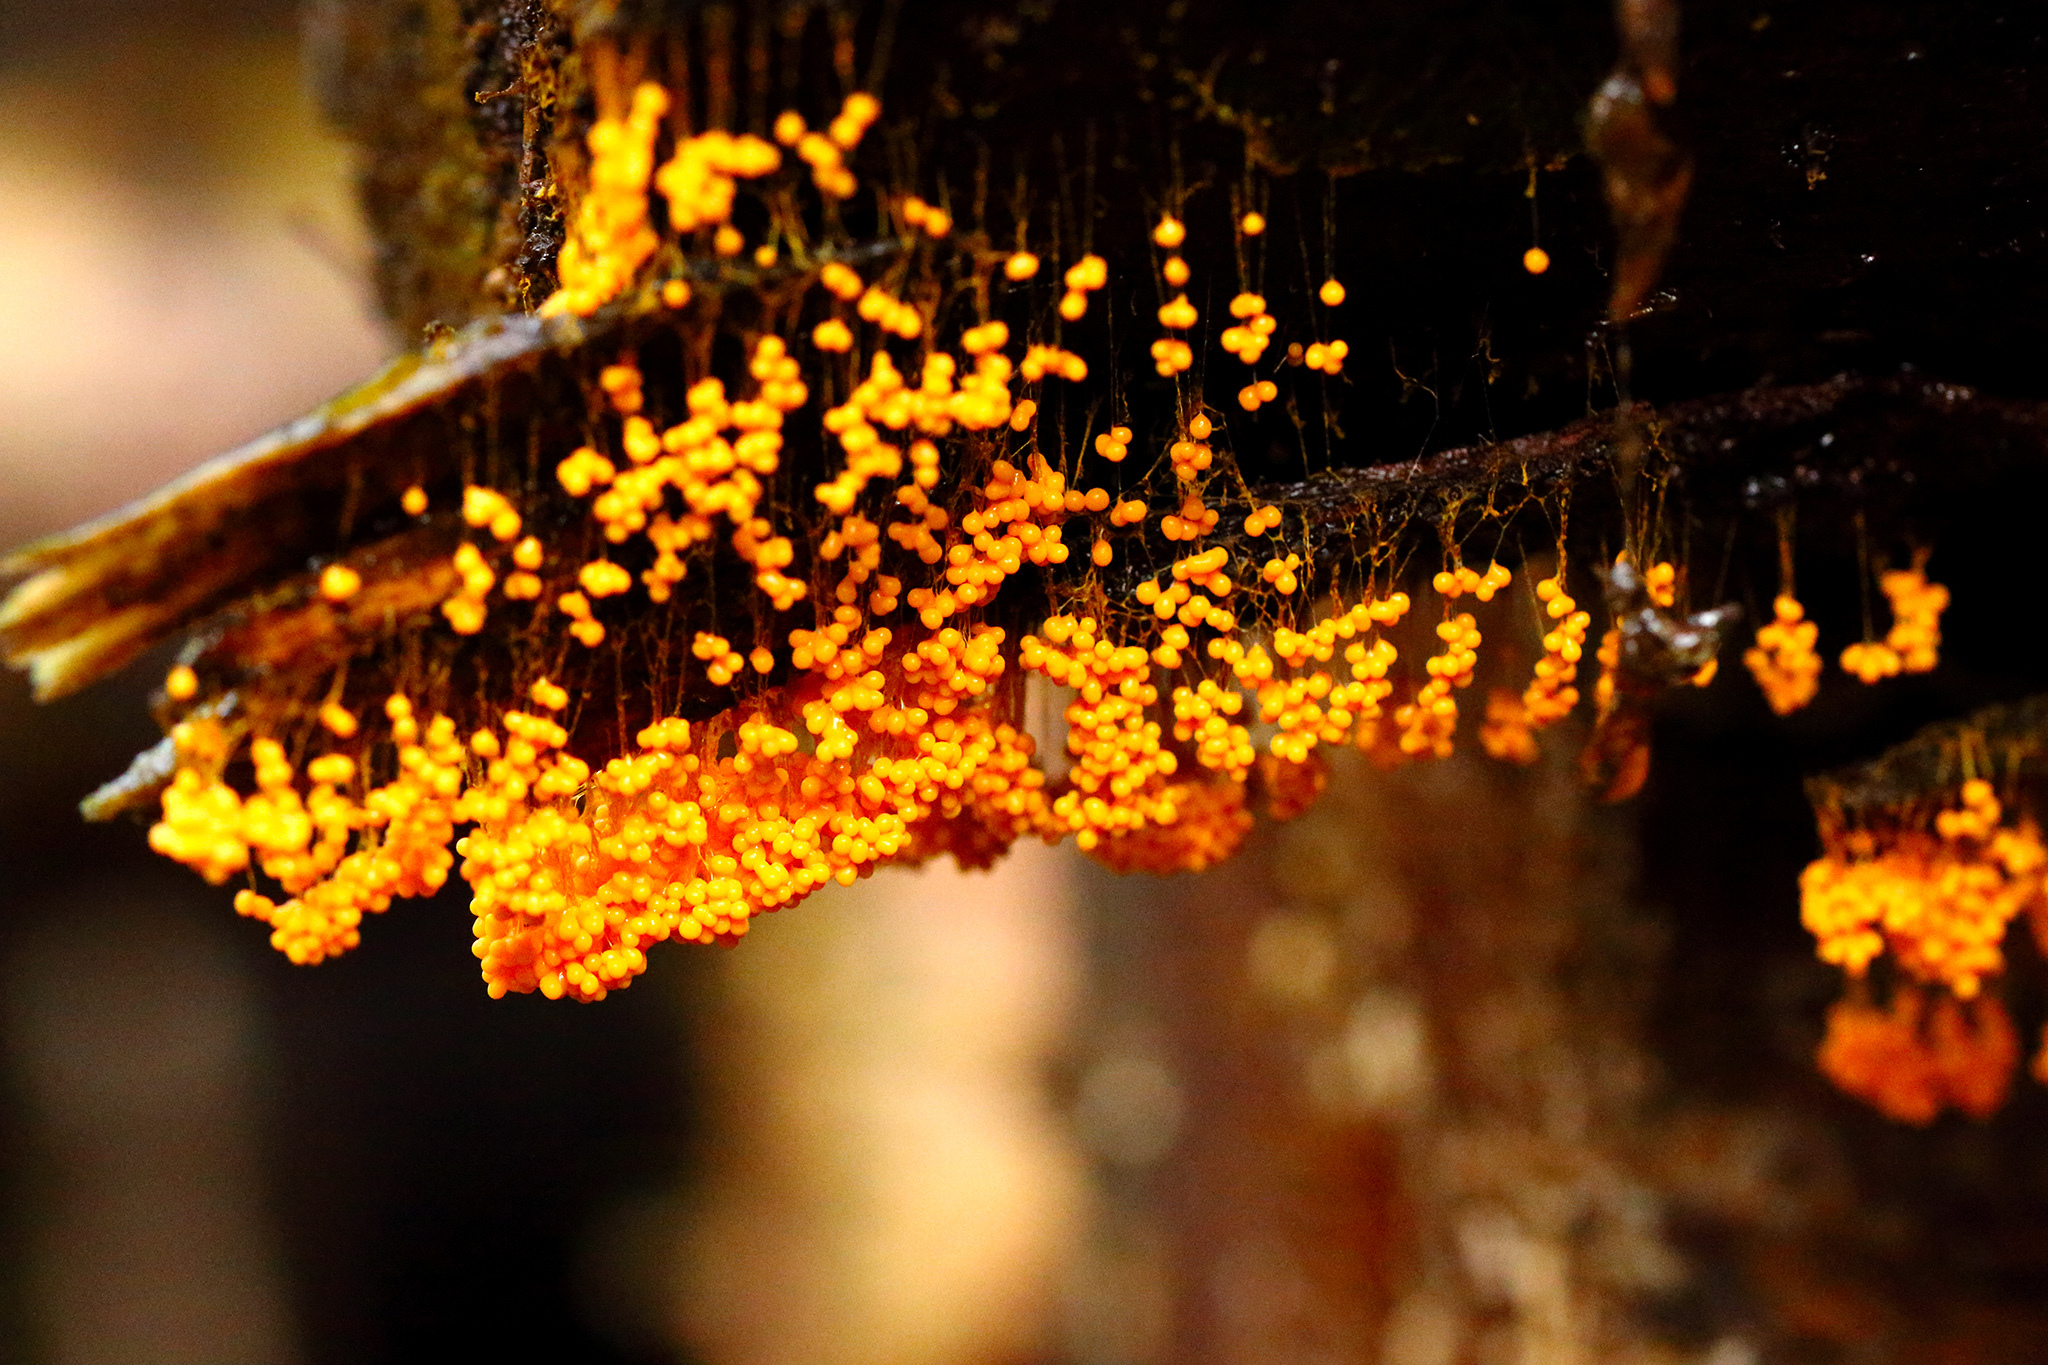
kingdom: Protozoa
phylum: Mycetozoa
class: Myxomycetes
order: Physarales
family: Physaraceae
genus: Badhamia
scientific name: Badhamia utricularis
